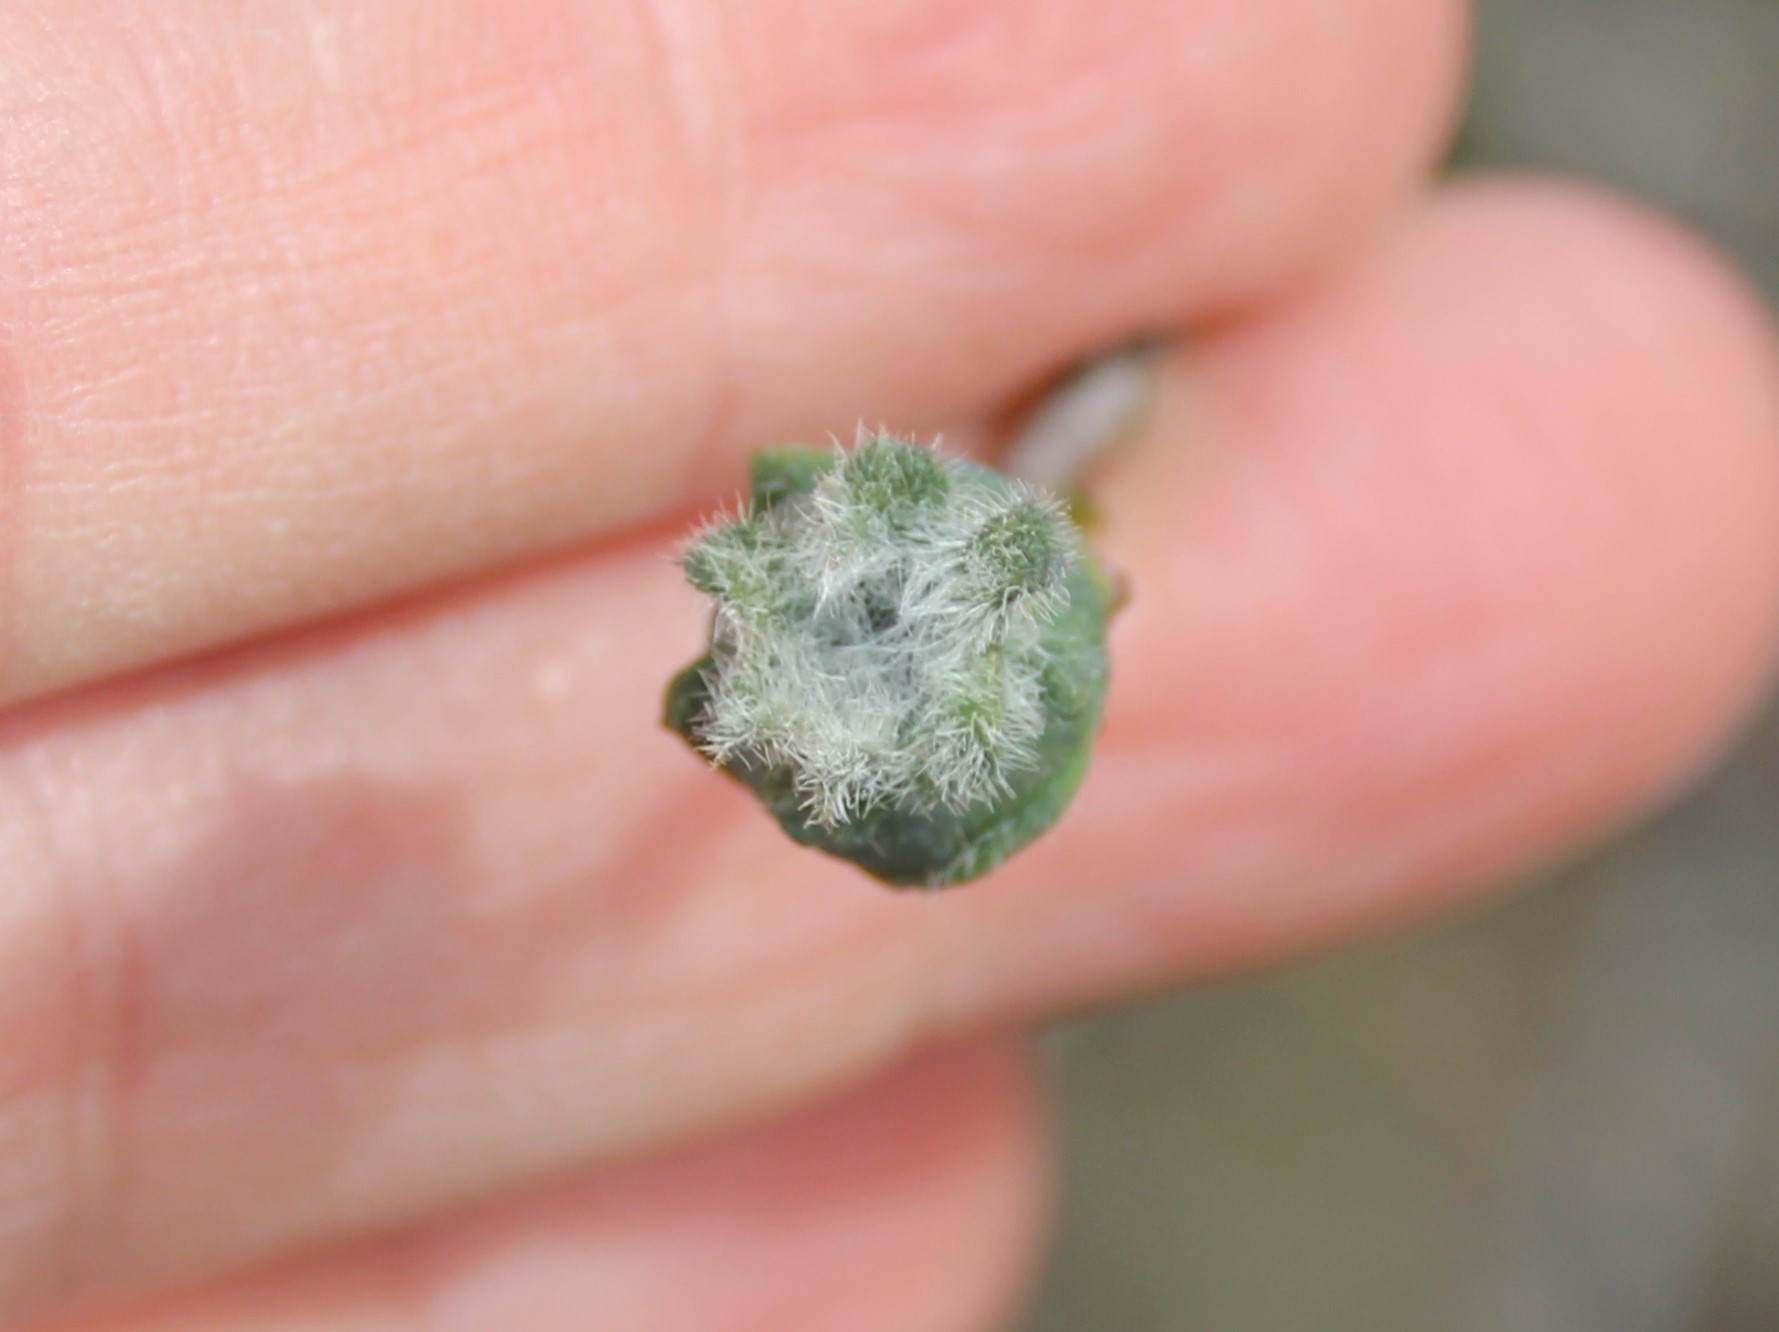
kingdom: Animalia
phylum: Arthropoda
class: Insecta
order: Diptera
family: Cecidomyiidae
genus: Lonicerae
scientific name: Lonicerae
